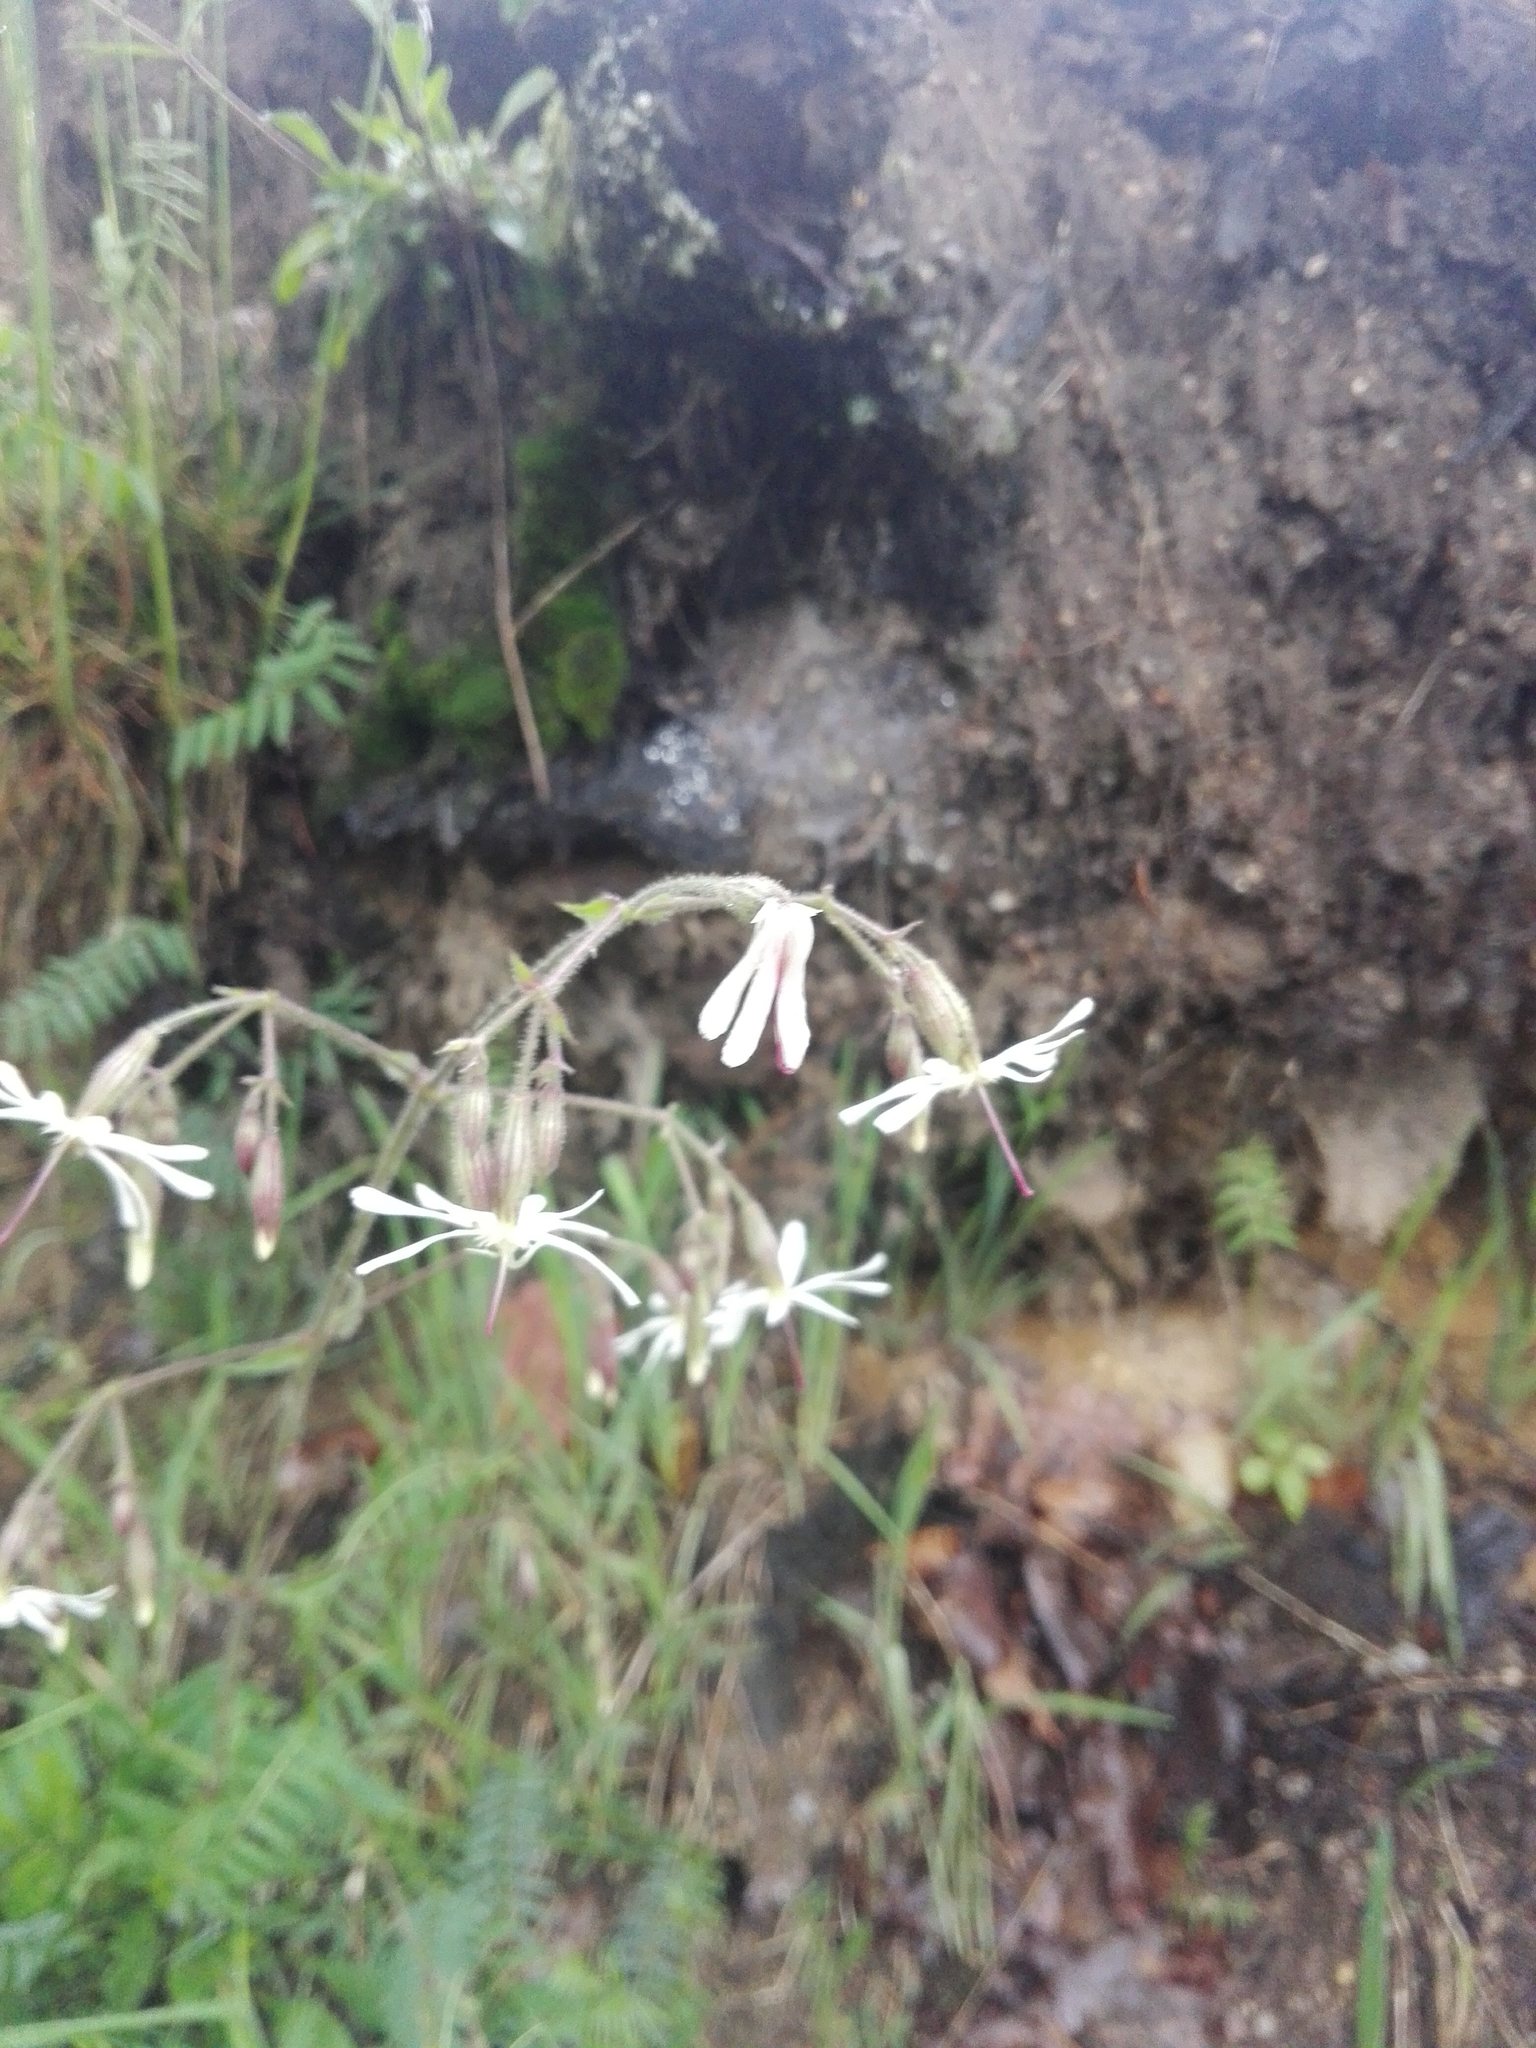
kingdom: Plantae
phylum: Tracheophyta
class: Magnoliopsida
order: Caryophyllales
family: Caryophyllaceae
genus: Silene
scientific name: Silene nutans
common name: Nottingham catchfly
